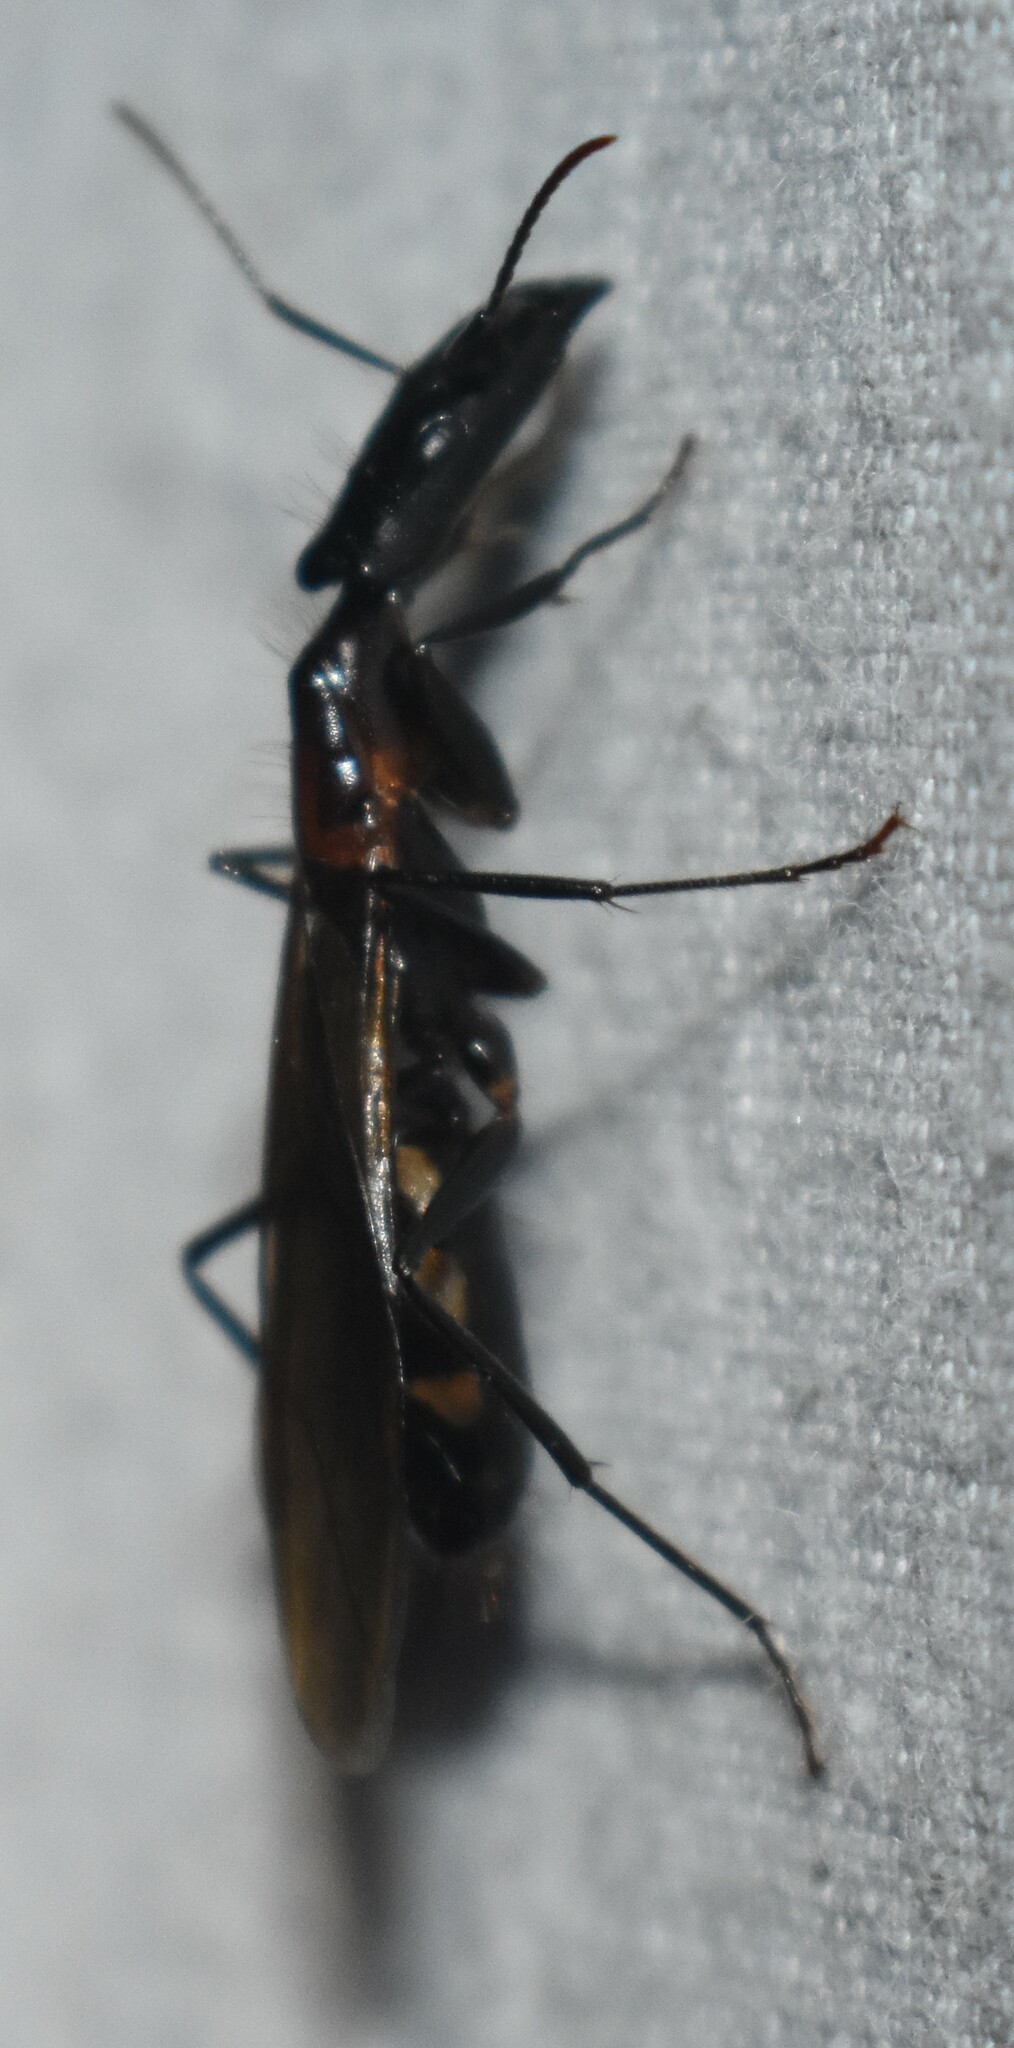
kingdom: Animalia
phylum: Arthropoda
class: Insecta
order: Hymenoptera
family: Formicidae
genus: Camponotus
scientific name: Camponotus mirabilis
